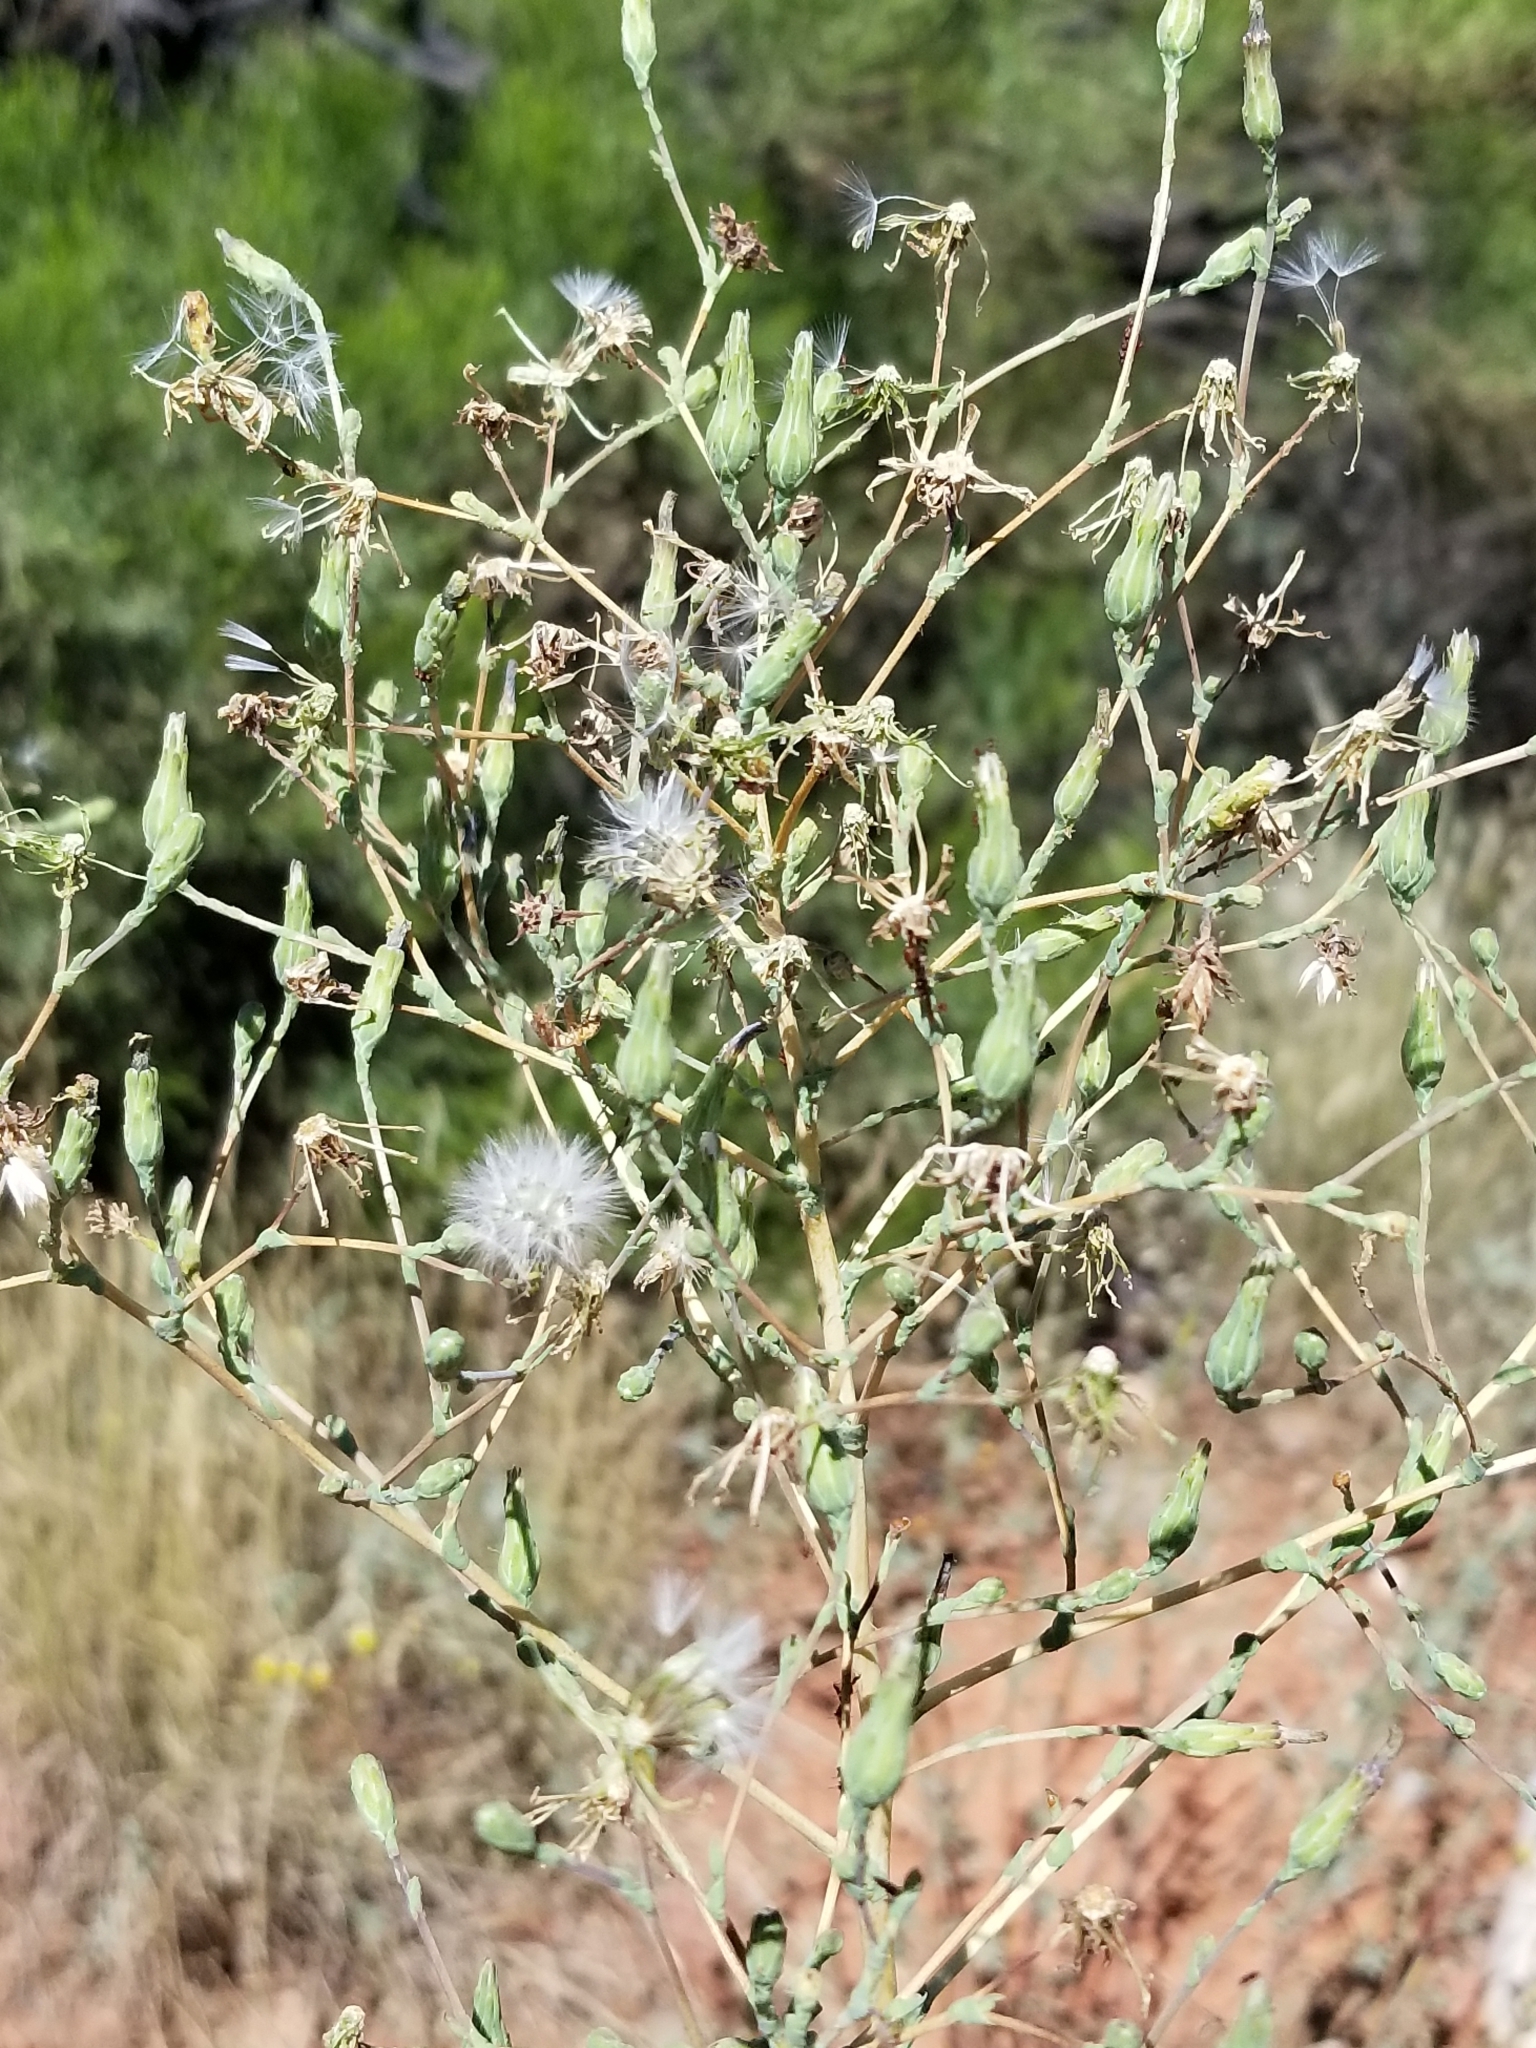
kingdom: Plantae
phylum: Tracheophyta
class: Magnoliopsida
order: Asterales
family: Asteraceae
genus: Lactuca
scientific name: Lactuca serriola
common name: Prickly lettuce
